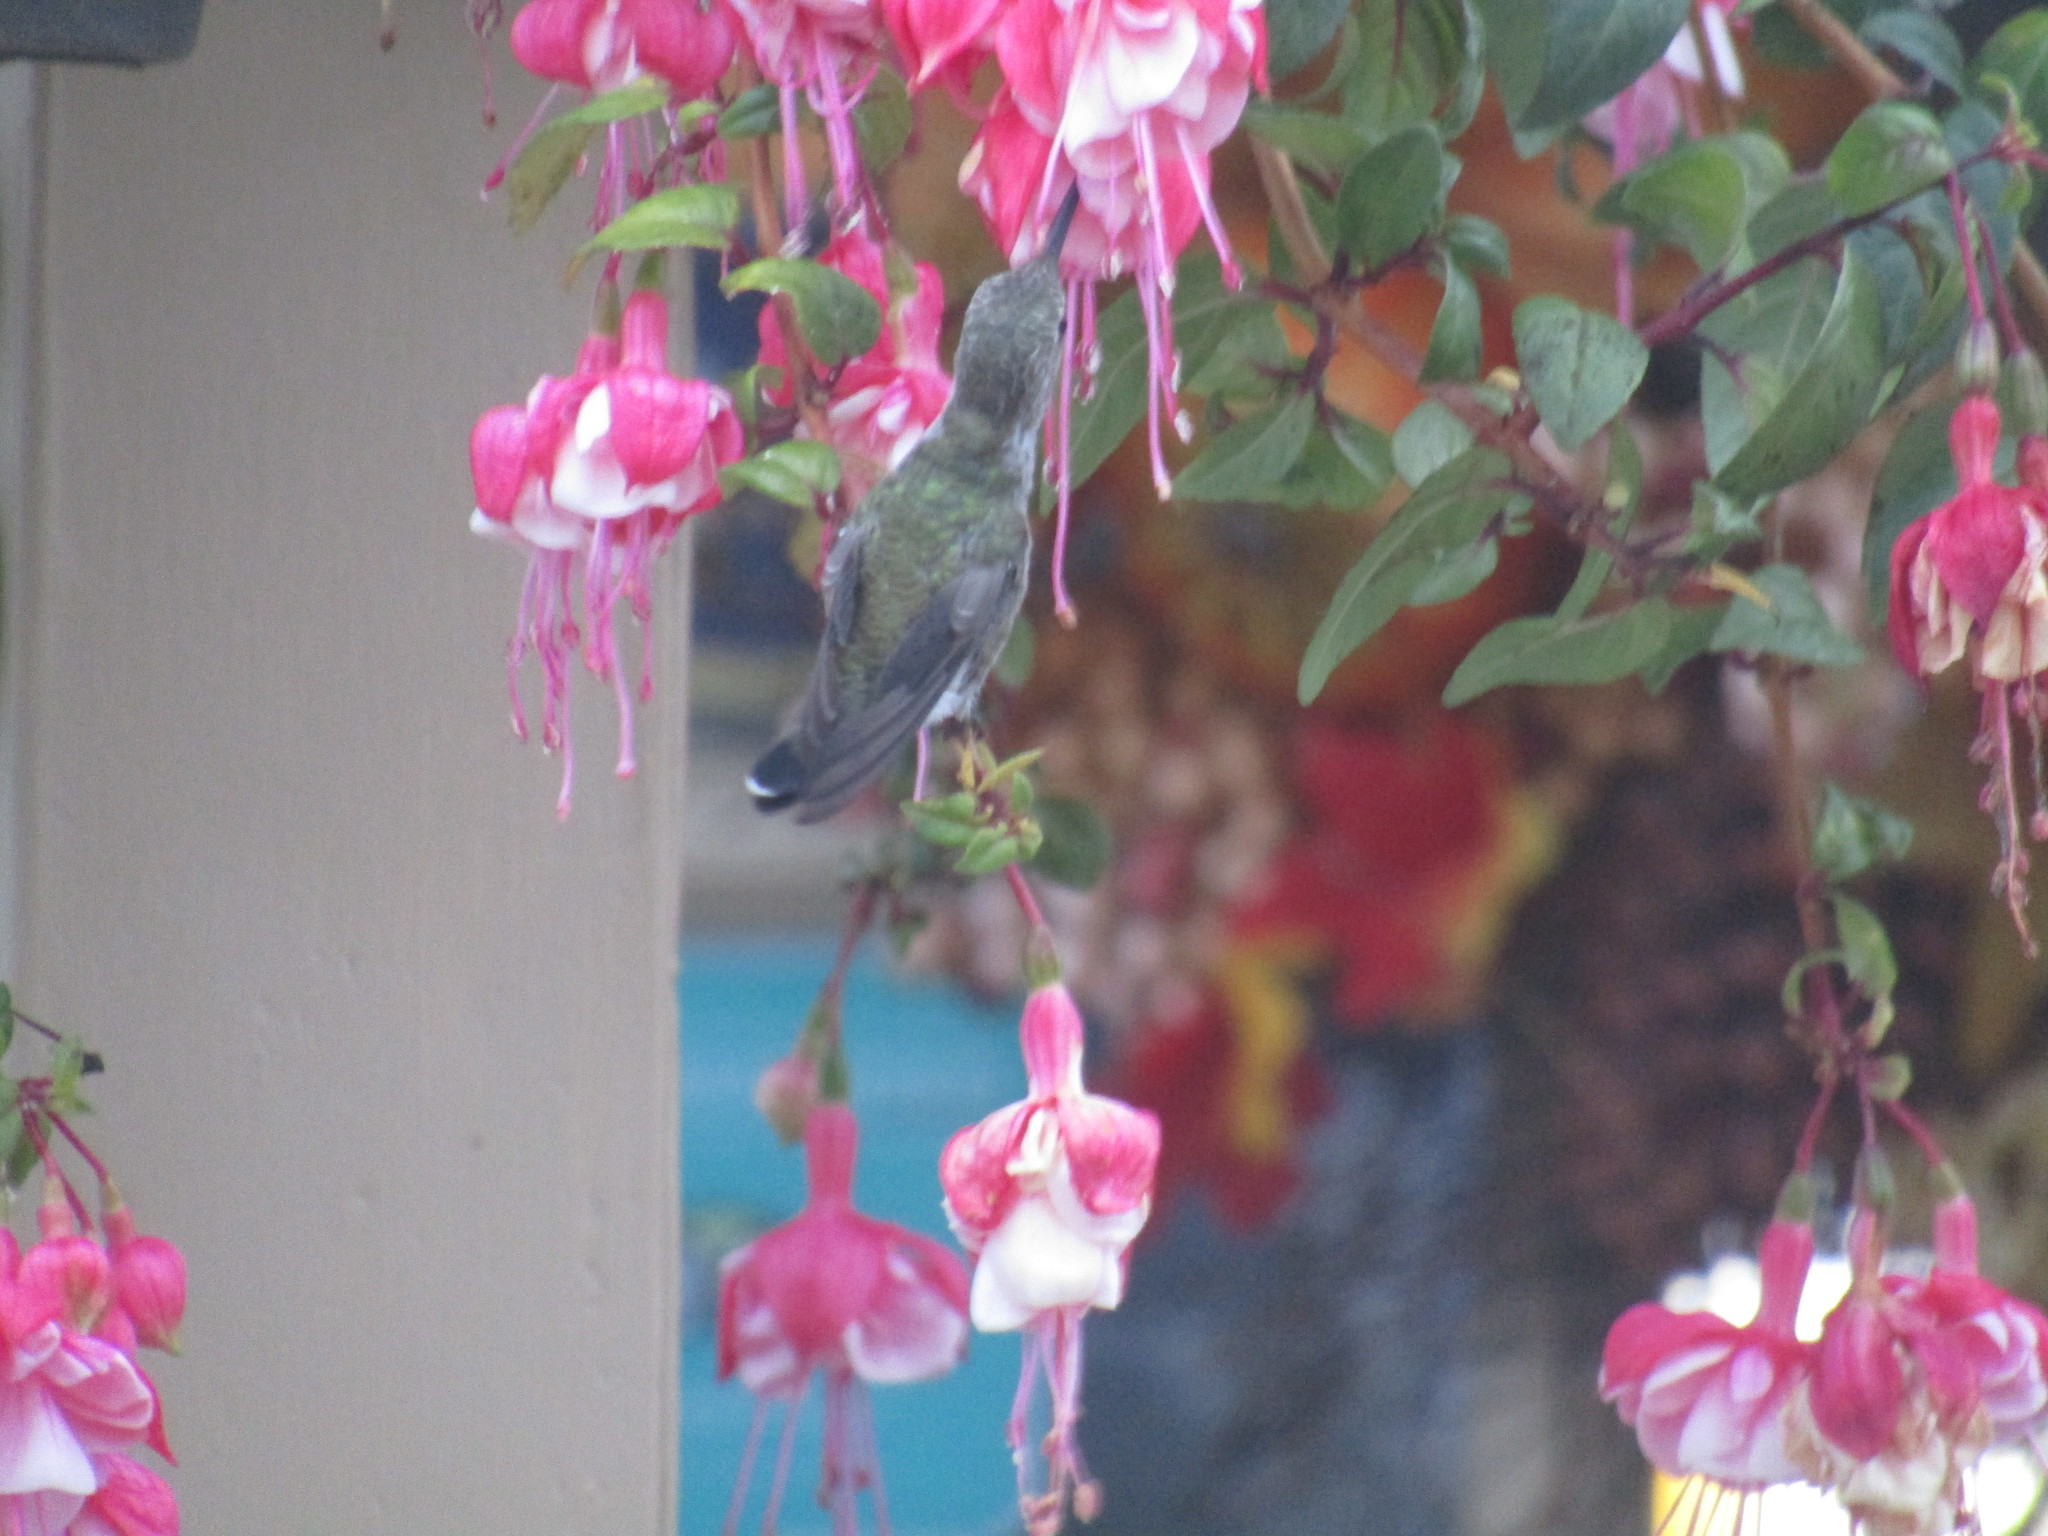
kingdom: Animalia
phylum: Chordata
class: Aves
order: Apodiformes
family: Trochilidae
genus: Calypte
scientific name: Calypte anna
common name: Anna's hummingbird
